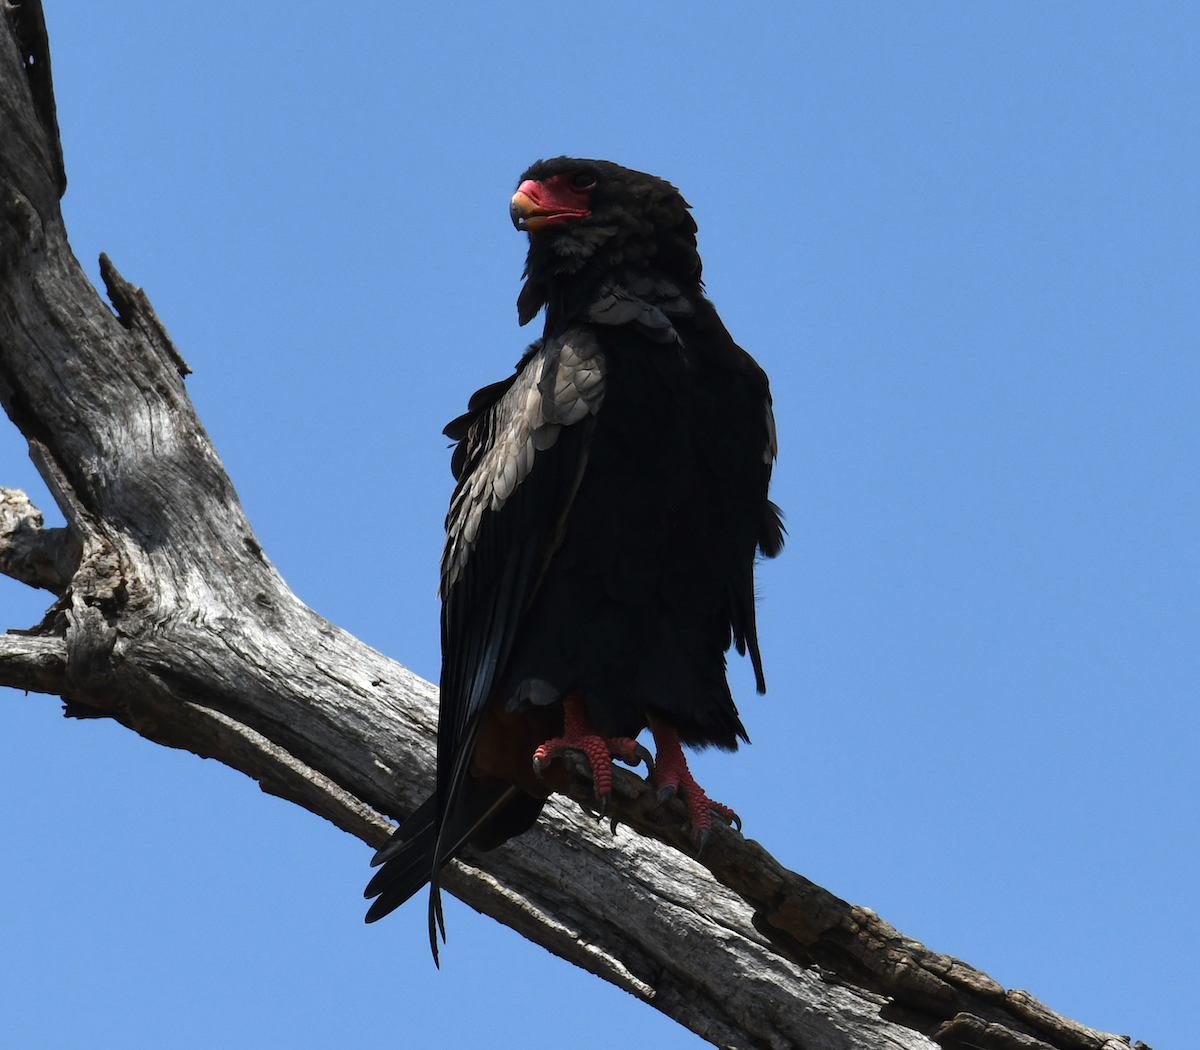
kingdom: Animalia
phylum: Chordata
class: Aves
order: Accipitriformes
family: Accipitridae
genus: Terathopius
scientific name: Terathopius ecaudatus
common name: Bateleur
